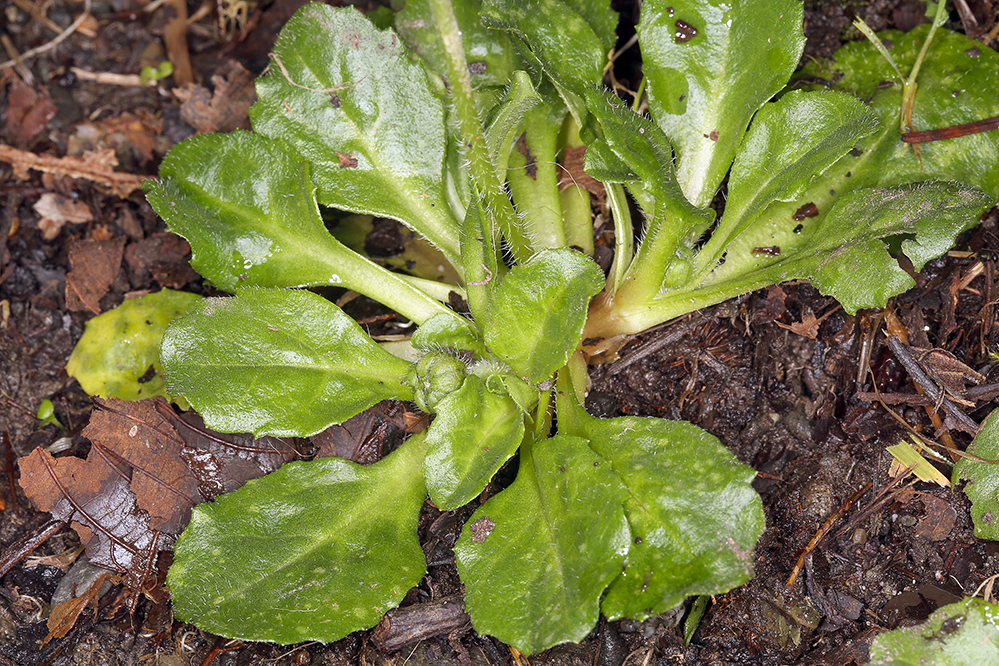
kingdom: Plantae
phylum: Tracheophyta
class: Magnoliopsida
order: Asterales
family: Asteraceae
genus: Bellis
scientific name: Bellis perennis
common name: Lawndaisy
